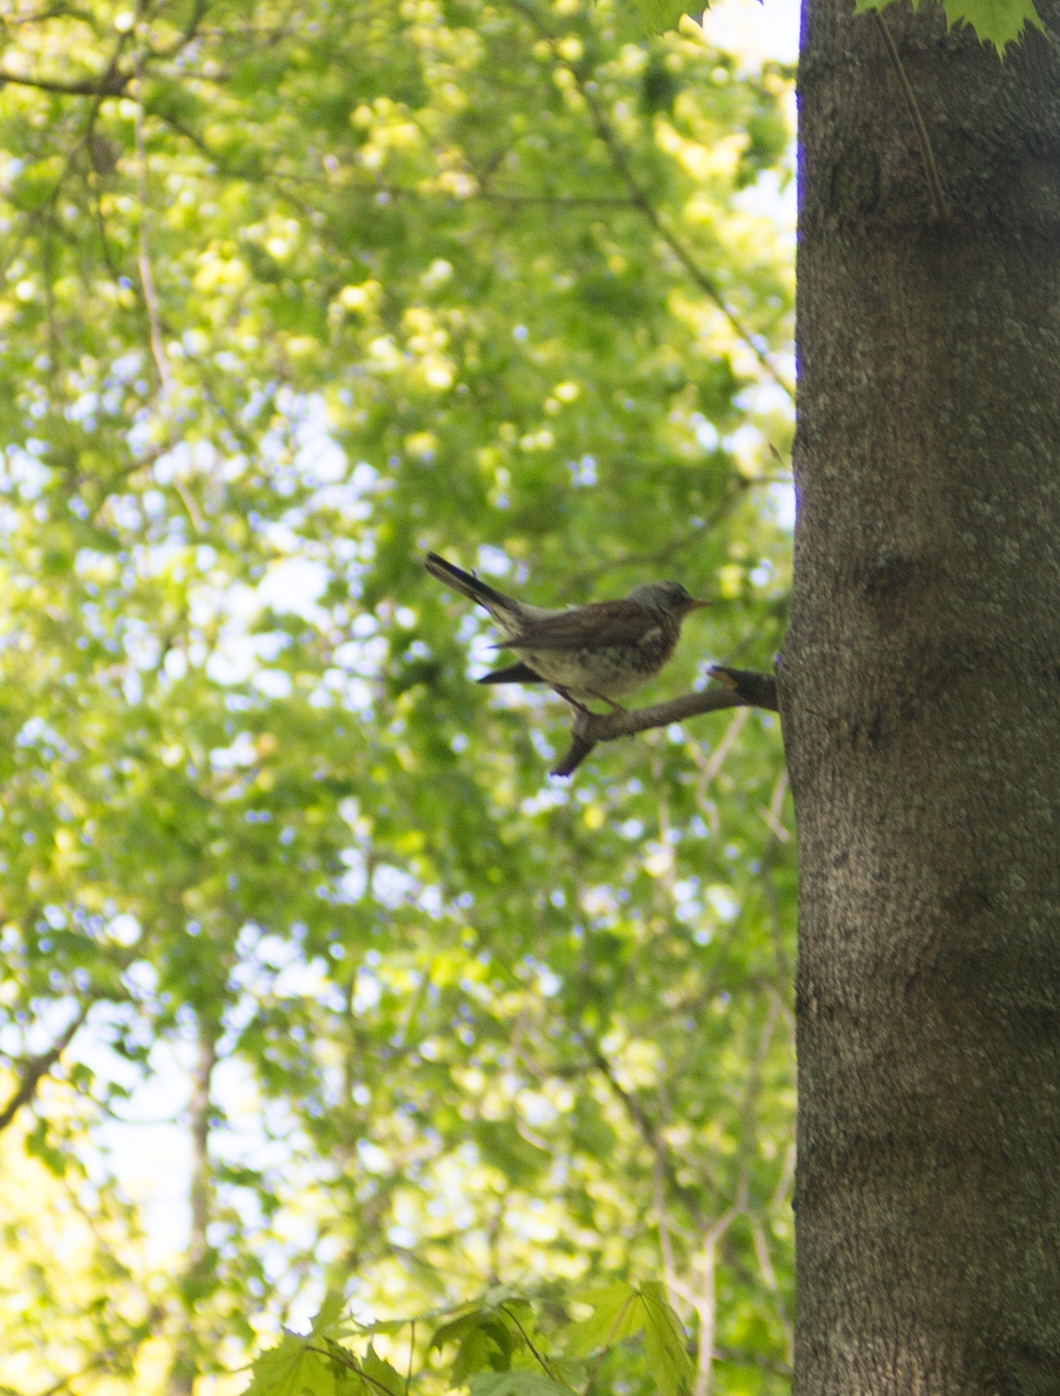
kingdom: Animalia
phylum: Chordata
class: Aves
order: Passeriformes
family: Turdidae
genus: Turdus
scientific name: Turdus pilaris
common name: Fieldfare
